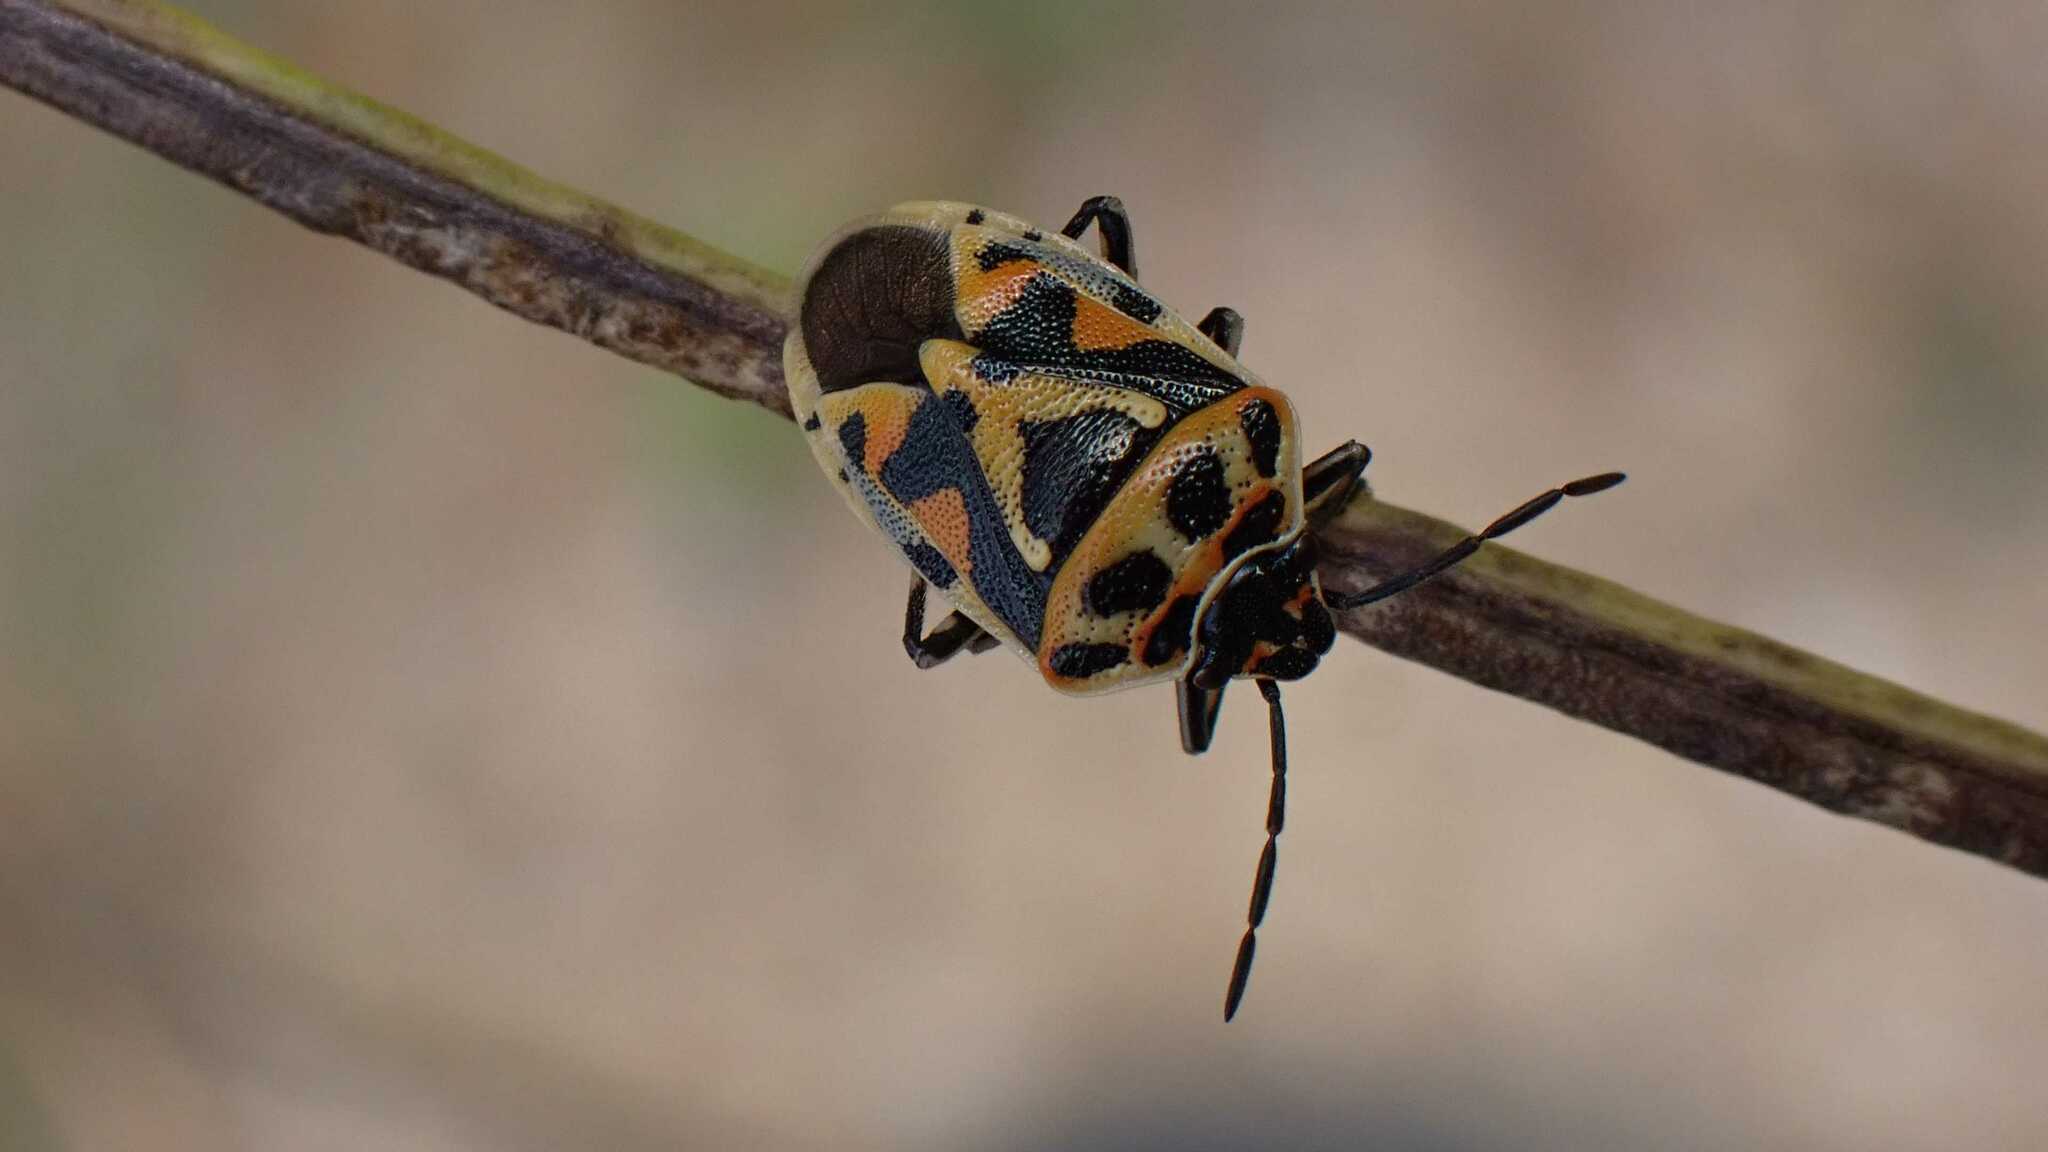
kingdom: Animalia
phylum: Arthropoda
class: Insecta
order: Hemiptera
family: Pentatomidae
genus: Eurydema
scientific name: Eurydema ornata
